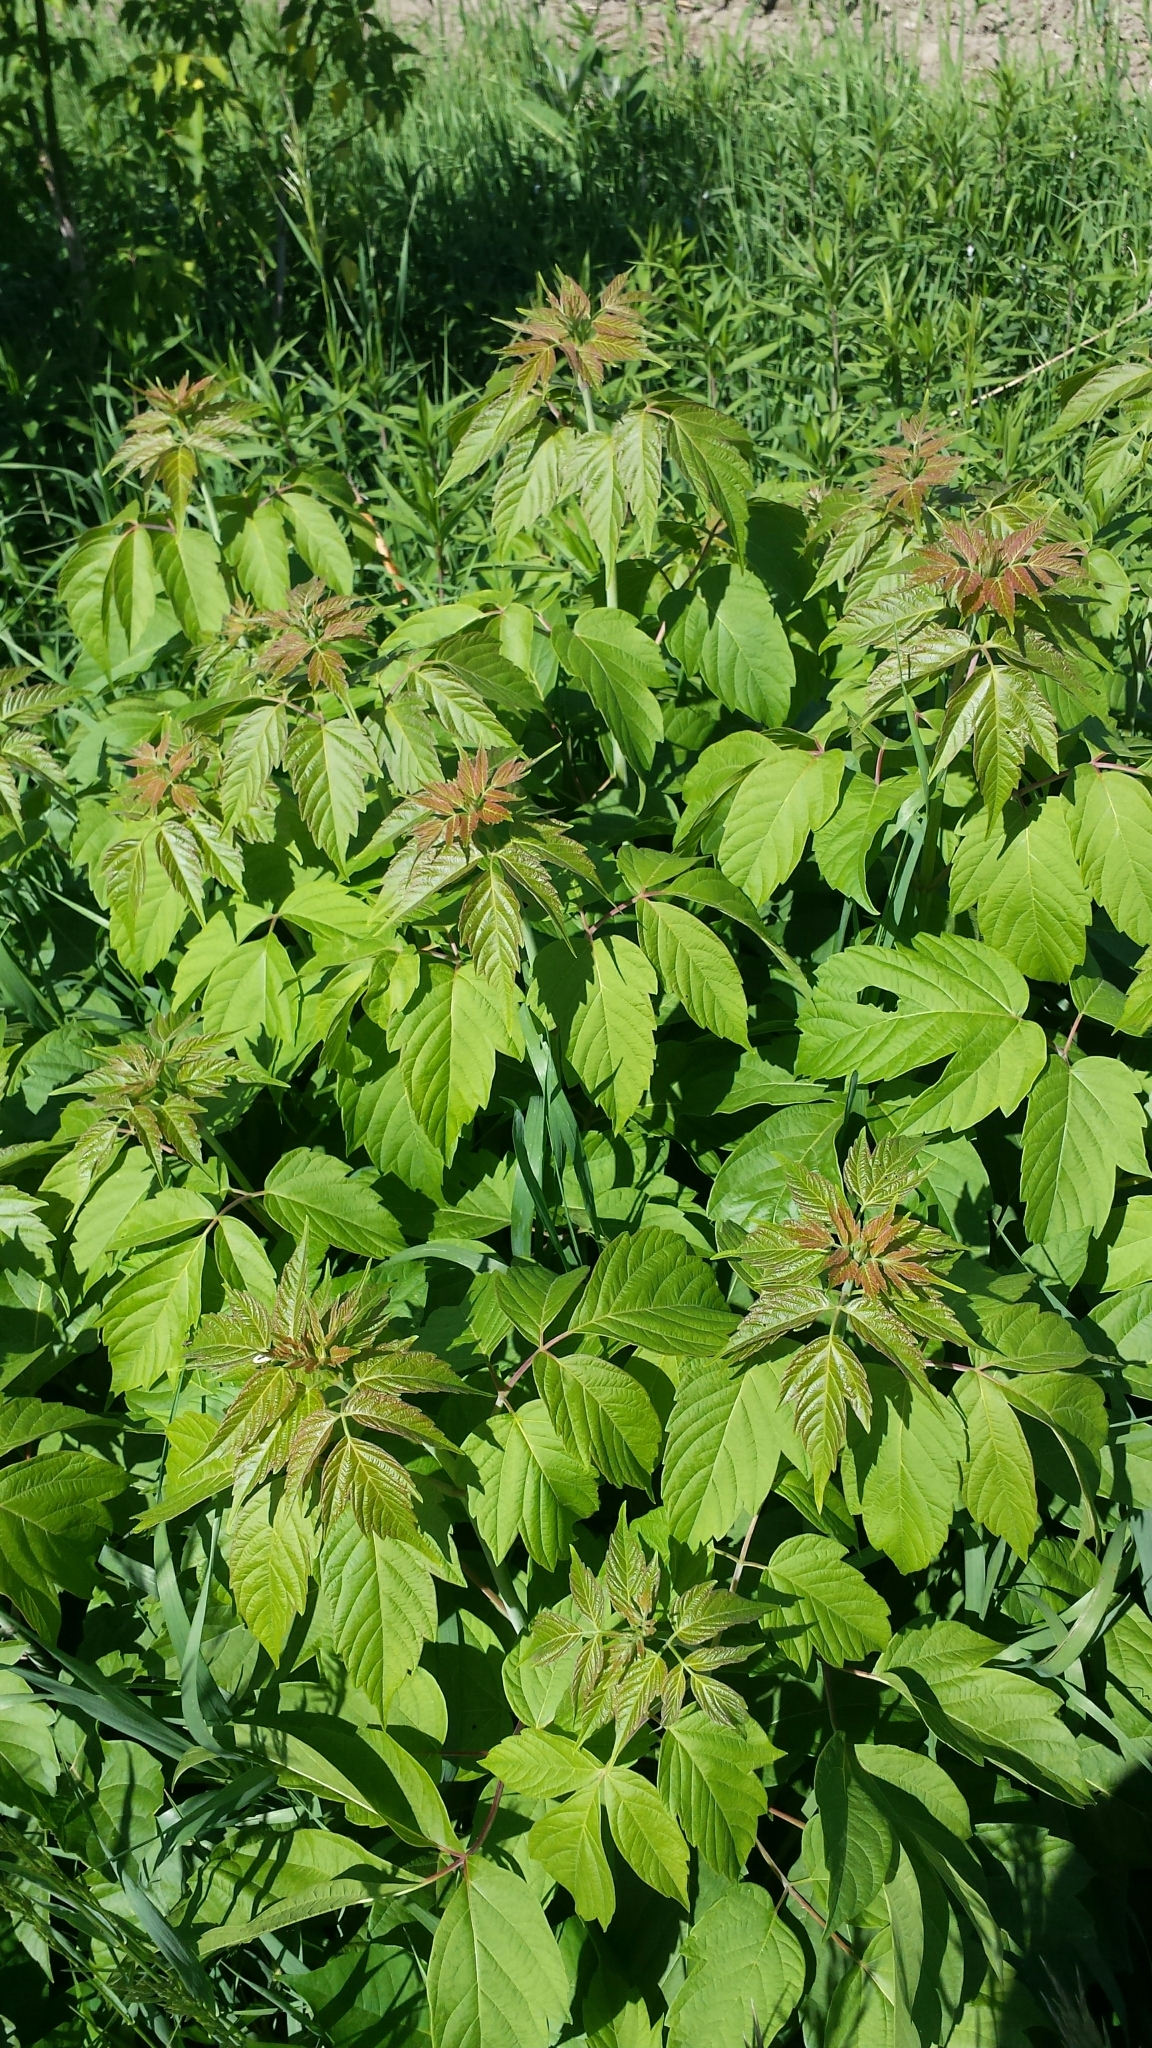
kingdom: Plantae
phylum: Tracheophyta
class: Magnoliopsida
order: Sapindales
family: Sapindaceae
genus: Acer
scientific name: Acer negundo
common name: Ashleaf maple
